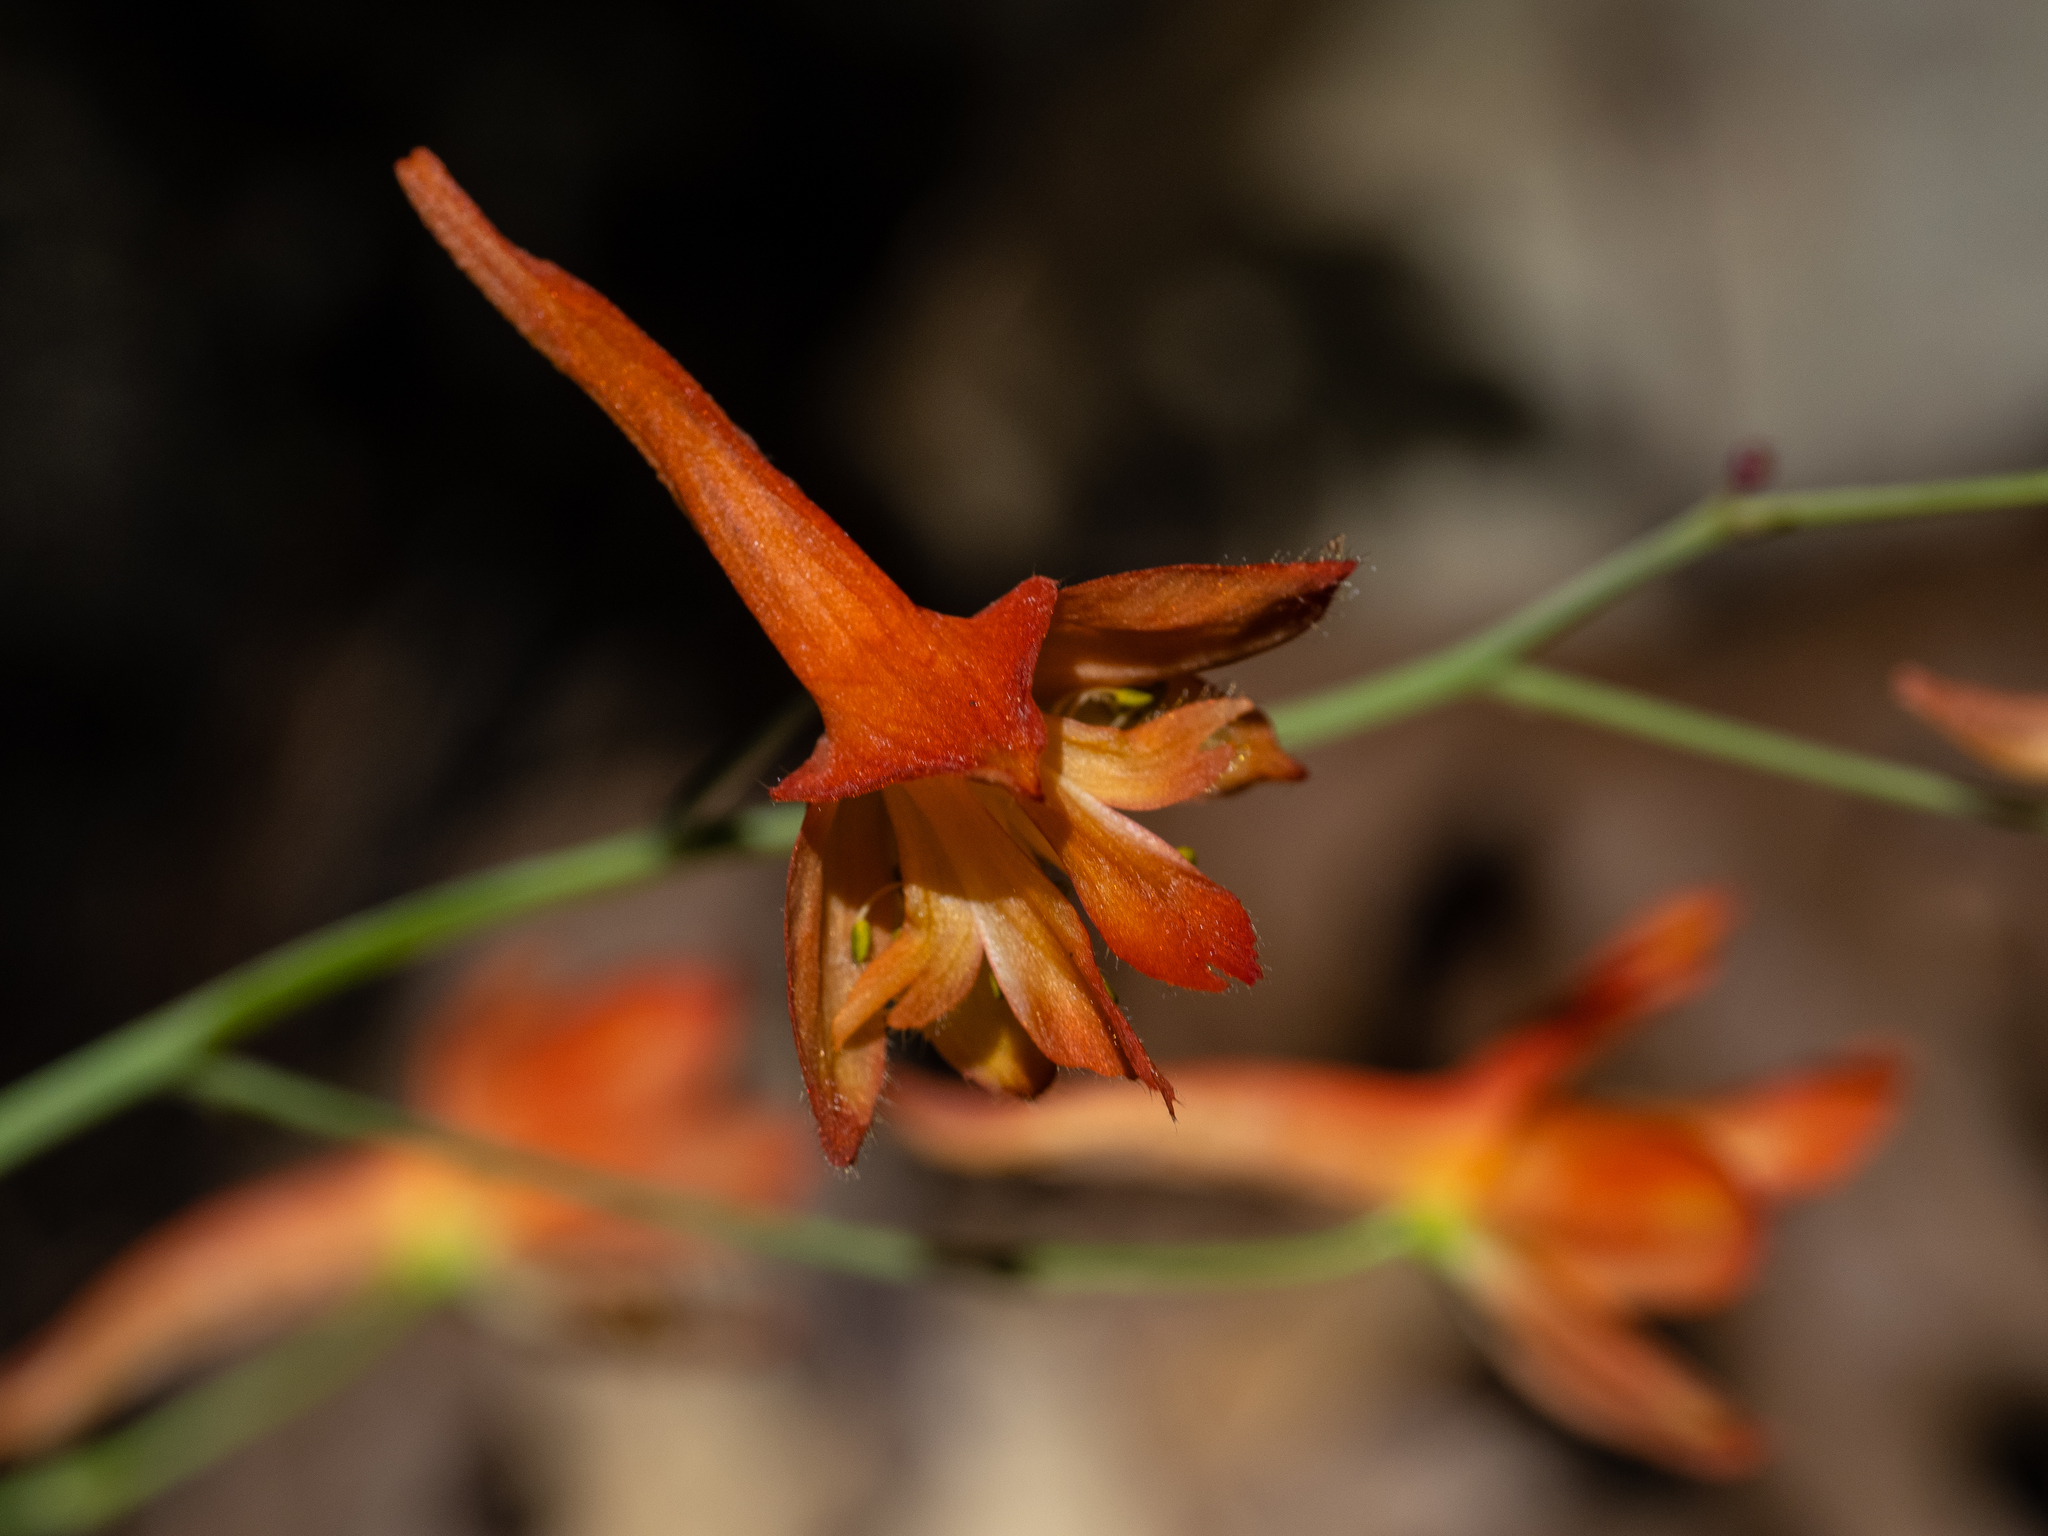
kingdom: Plantae
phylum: Tracheophyta
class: Magnoliopsida
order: Ranunculales
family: Ranunculaceae
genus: Delphinium
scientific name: Delphinium nudicaule
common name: Red larkspur
